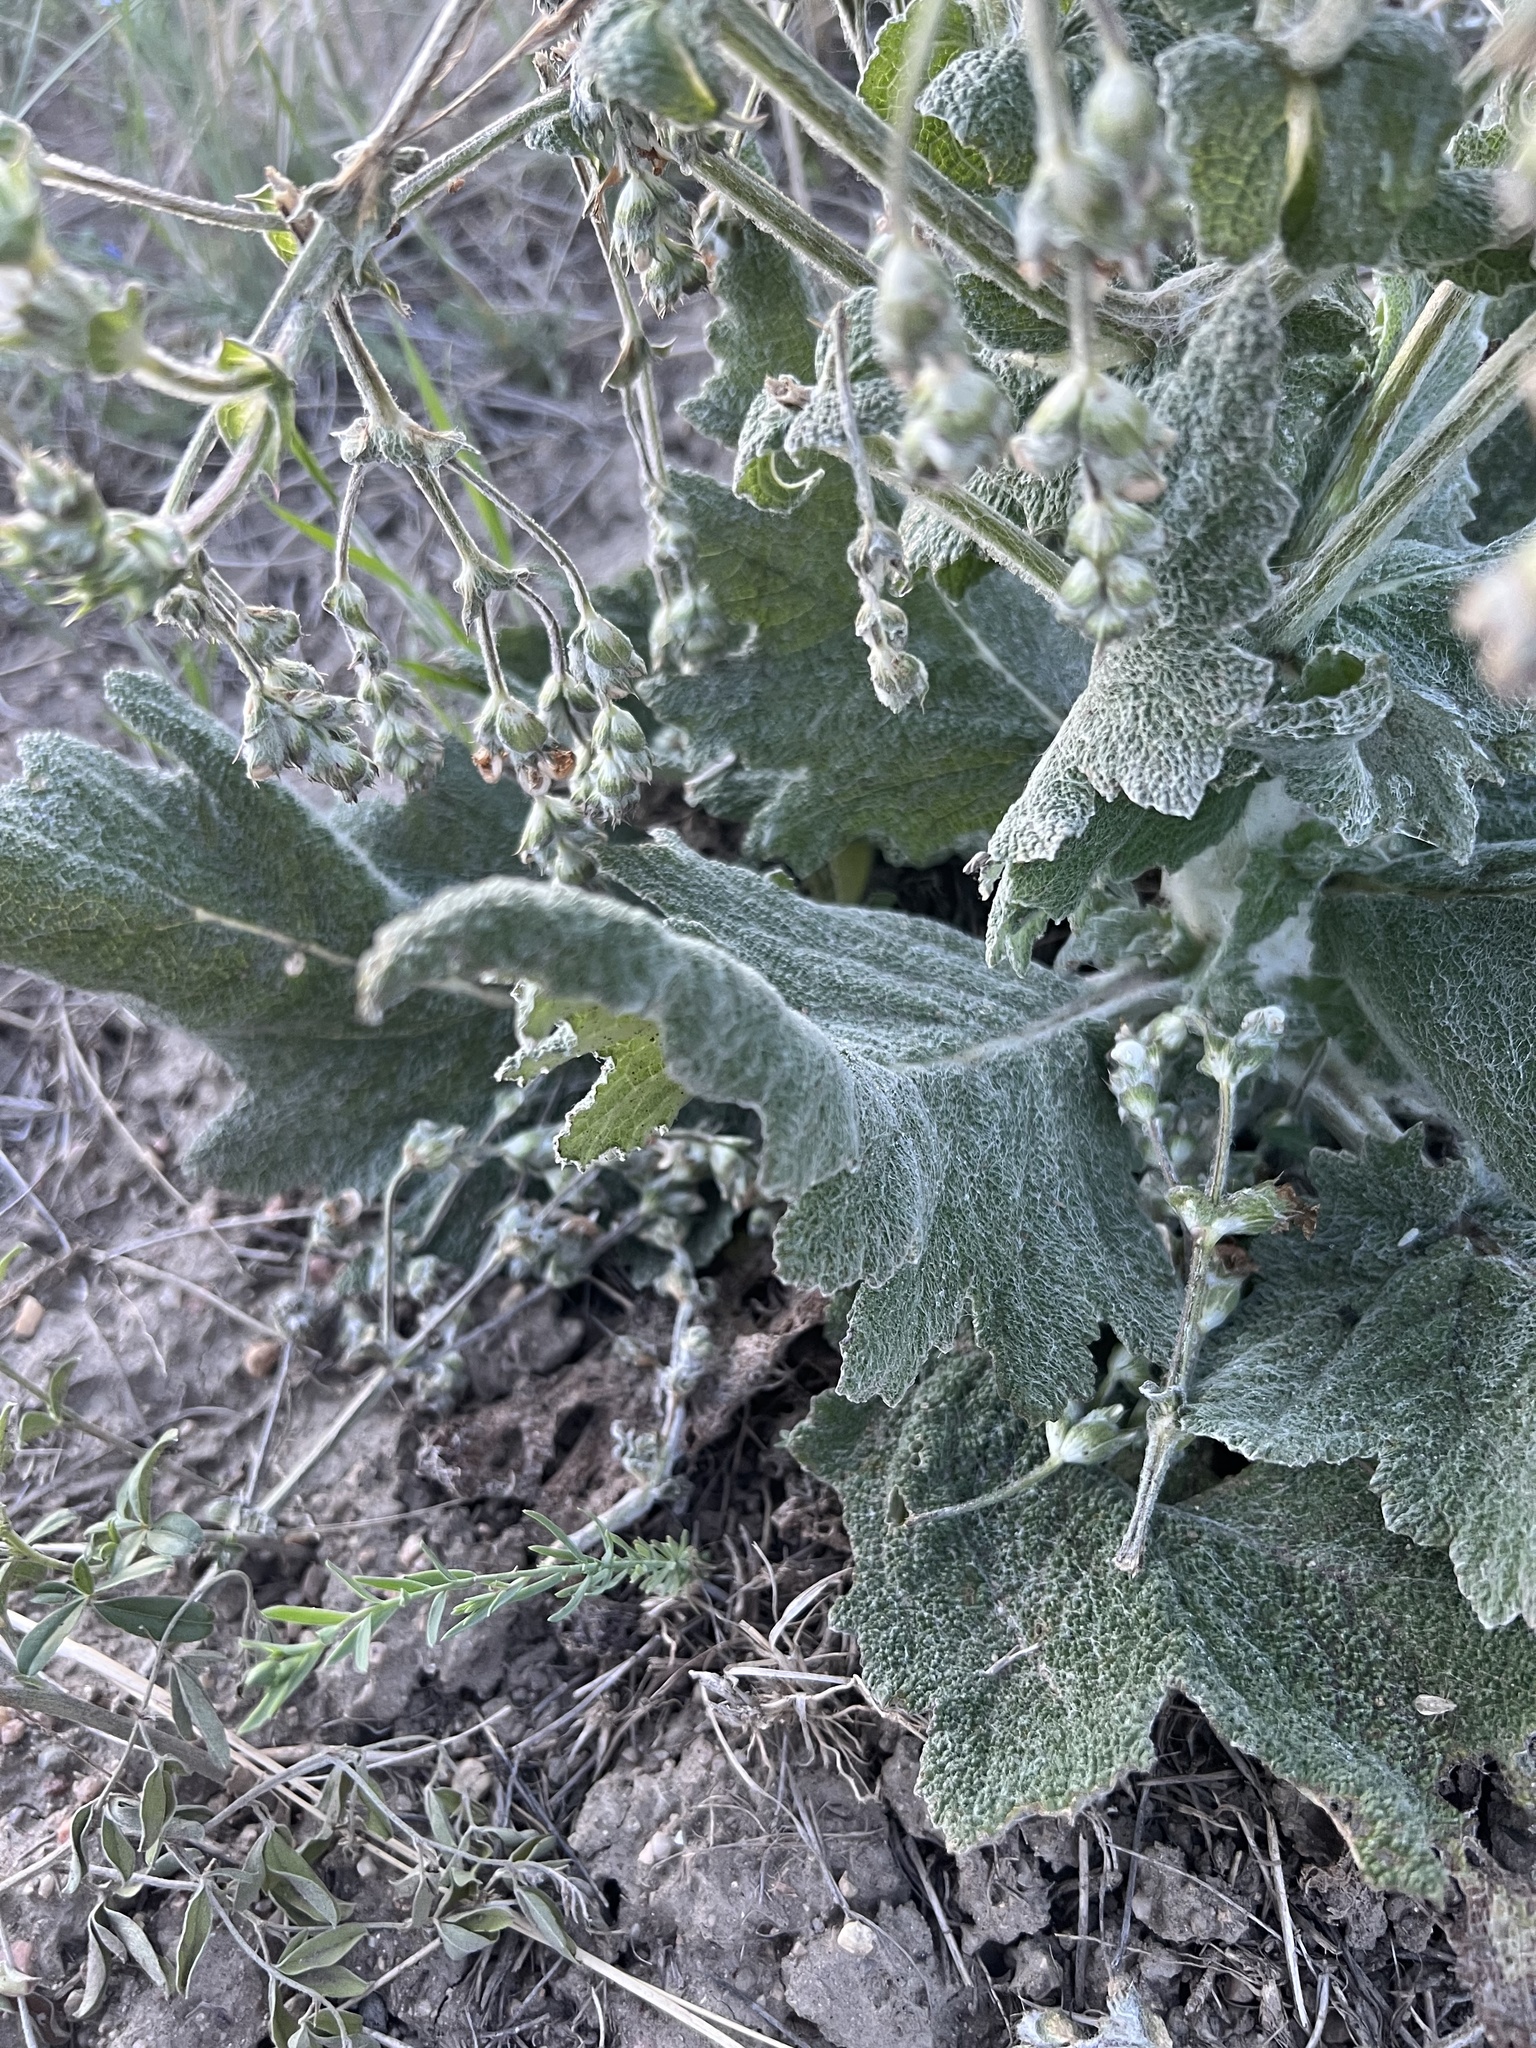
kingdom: Plantae
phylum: Tracheophyta
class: Magnoliopsida
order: Lamiales
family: Lamiaceae
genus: Salvia
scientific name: Salvia aethiopis
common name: Mediterranean sage
